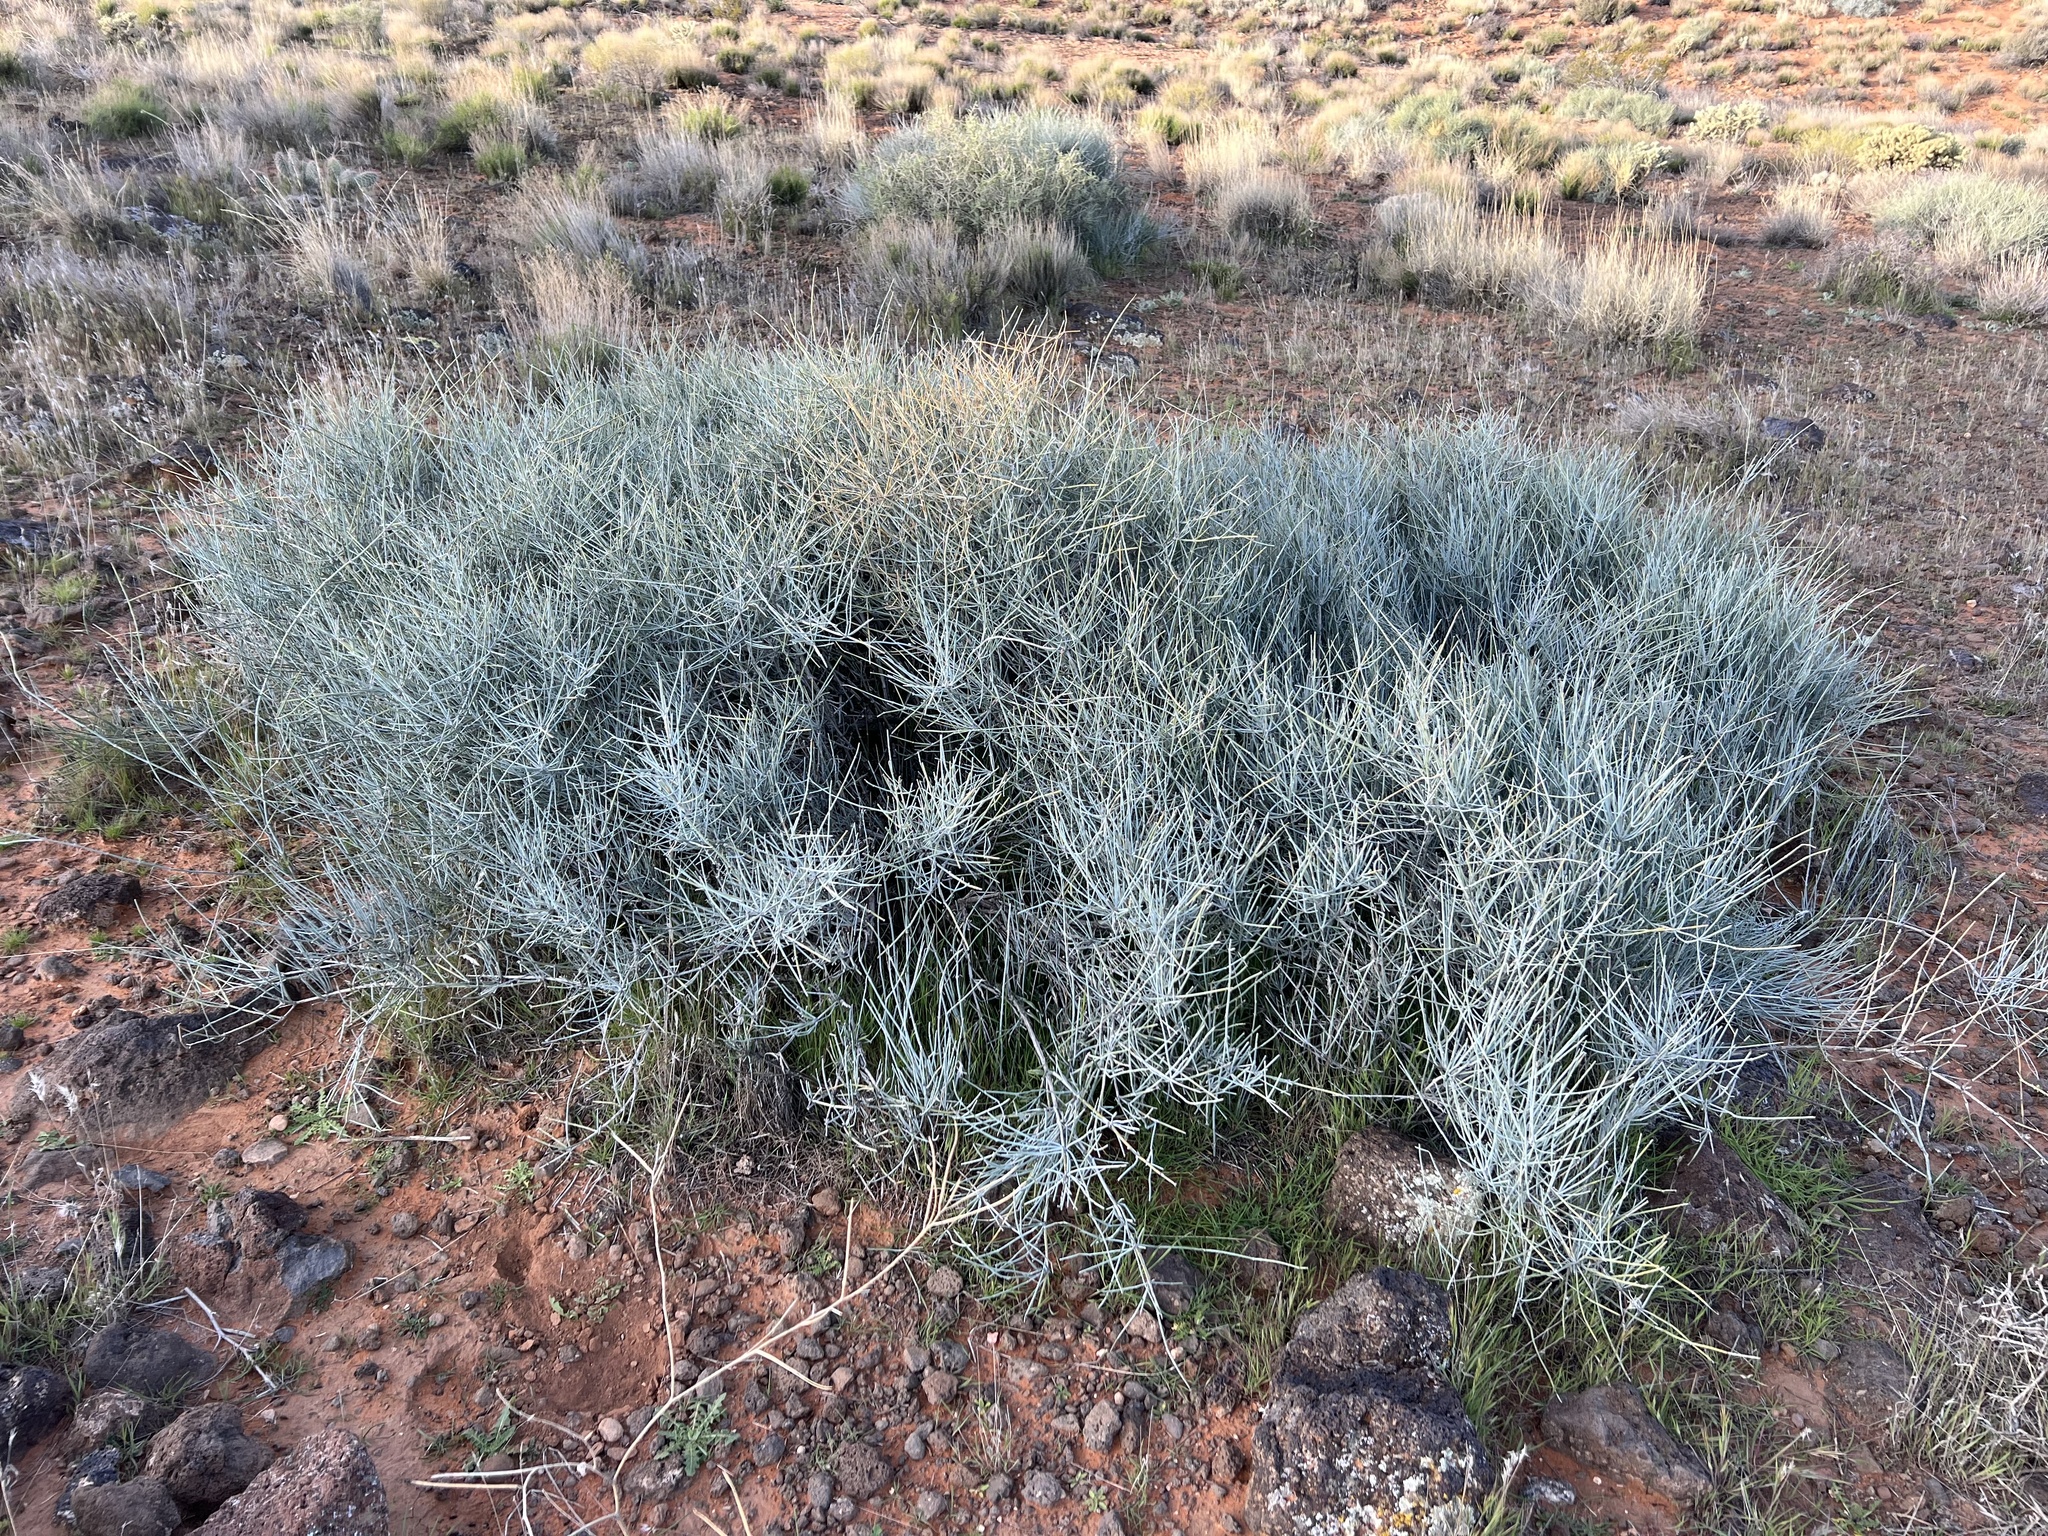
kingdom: Plantae
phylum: Tracheophyta
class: Gnetopsida
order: Ephedrales
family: Ephedraceae
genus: Ephedra
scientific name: Ephedra nevadensis
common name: Gray ephedra
